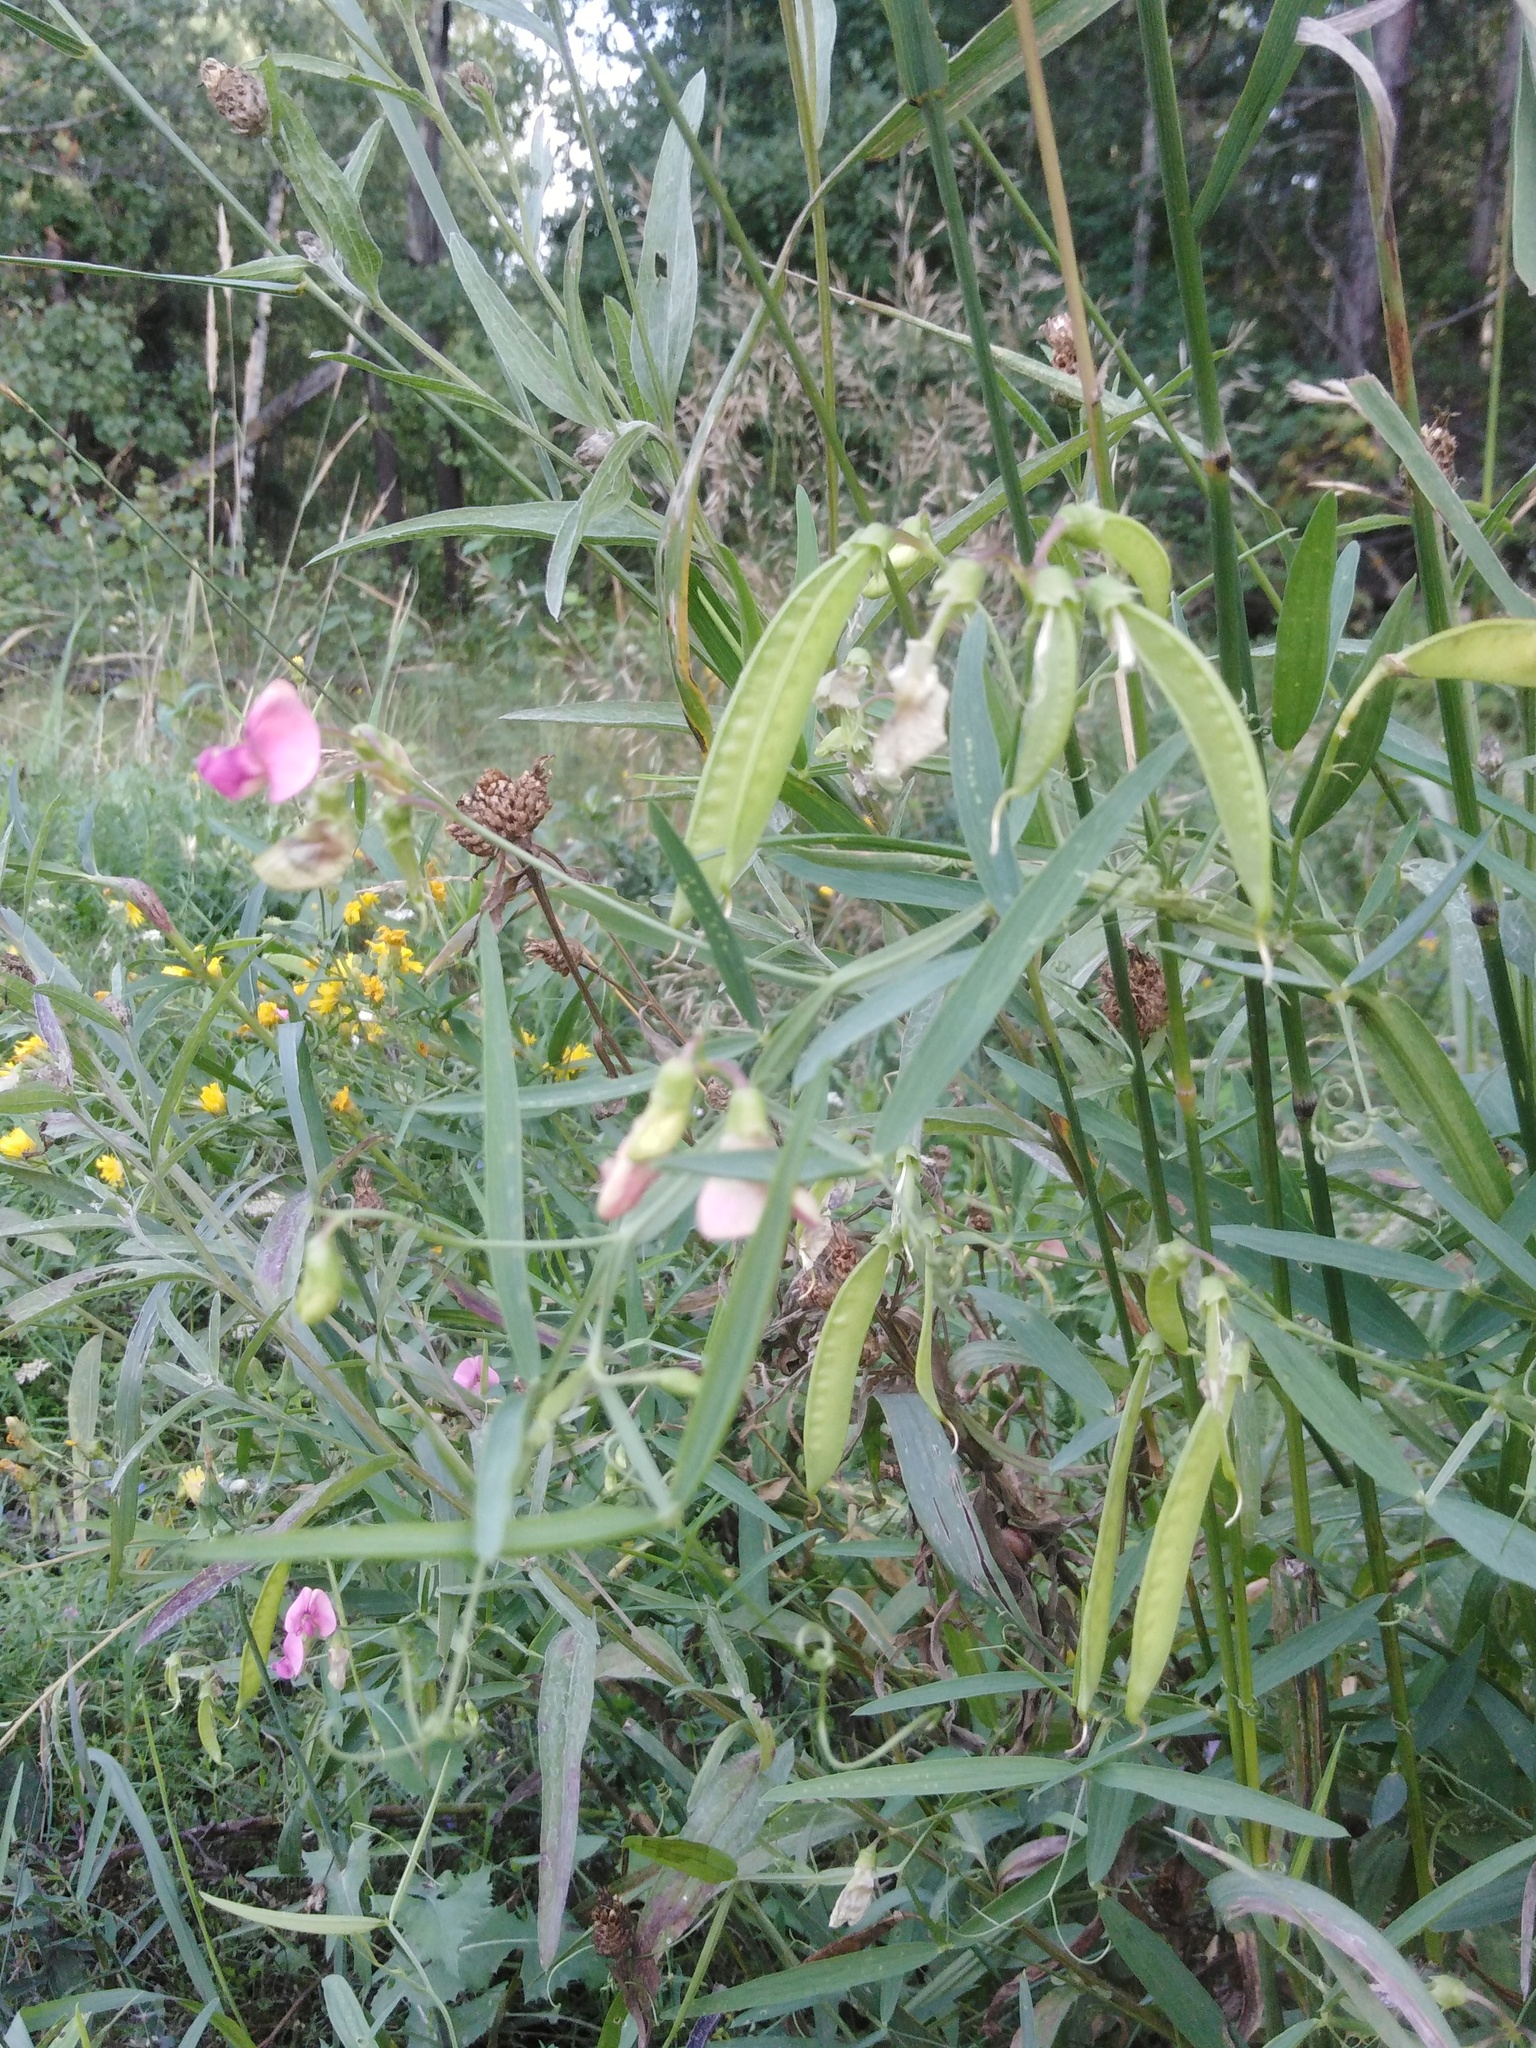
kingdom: Plantae
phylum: Tracheophyta
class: Magnoliopsida
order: Fabales
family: Fabaceae
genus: Lathyrus
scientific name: Lathyrus sylvestris
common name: Flat pea
